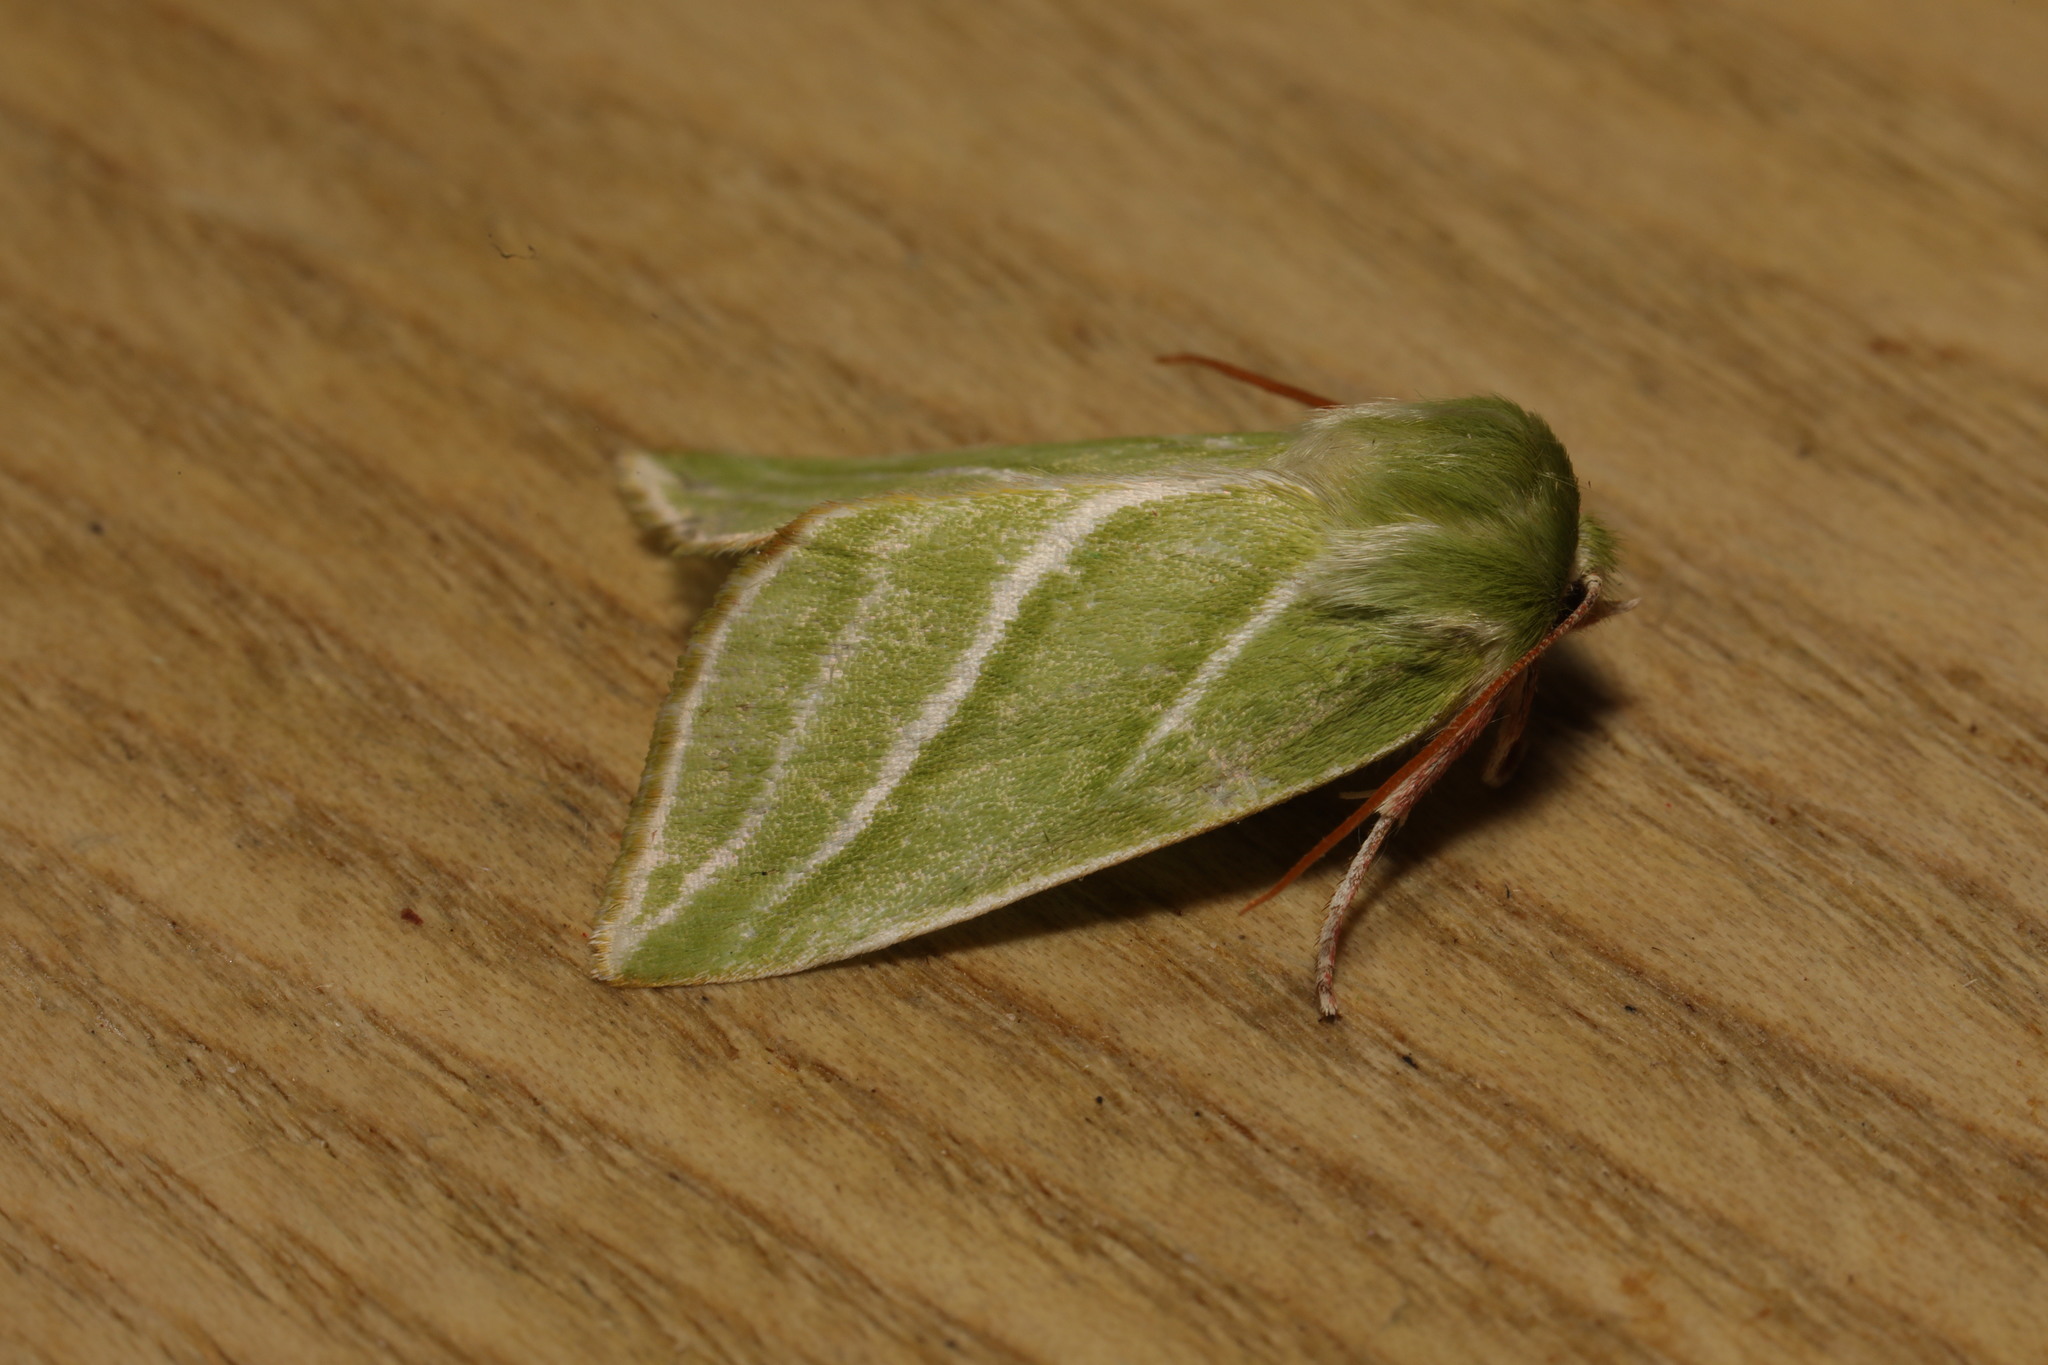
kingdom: Animalia
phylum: Arthropoda
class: Insecta
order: Lepidoptera
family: Nolidae
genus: Pseudoips
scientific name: Pseudoips prasinana
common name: Green silver-lines
